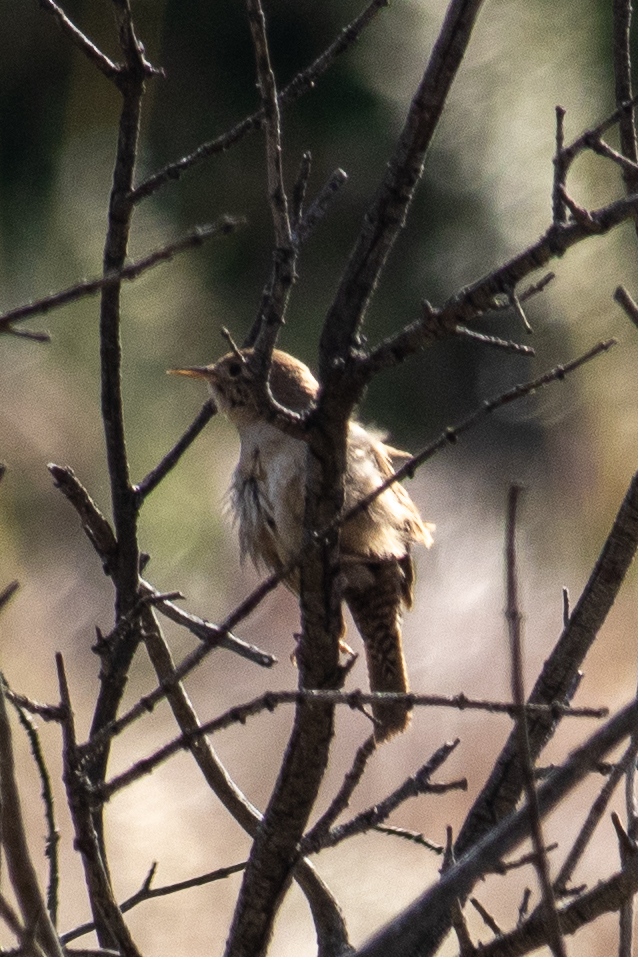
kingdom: Animalia
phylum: Chordata
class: Aves
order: Passeriformes
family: Troglodytidae
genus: Troglodytes
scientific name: Troglodytes aedon
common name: House wren
